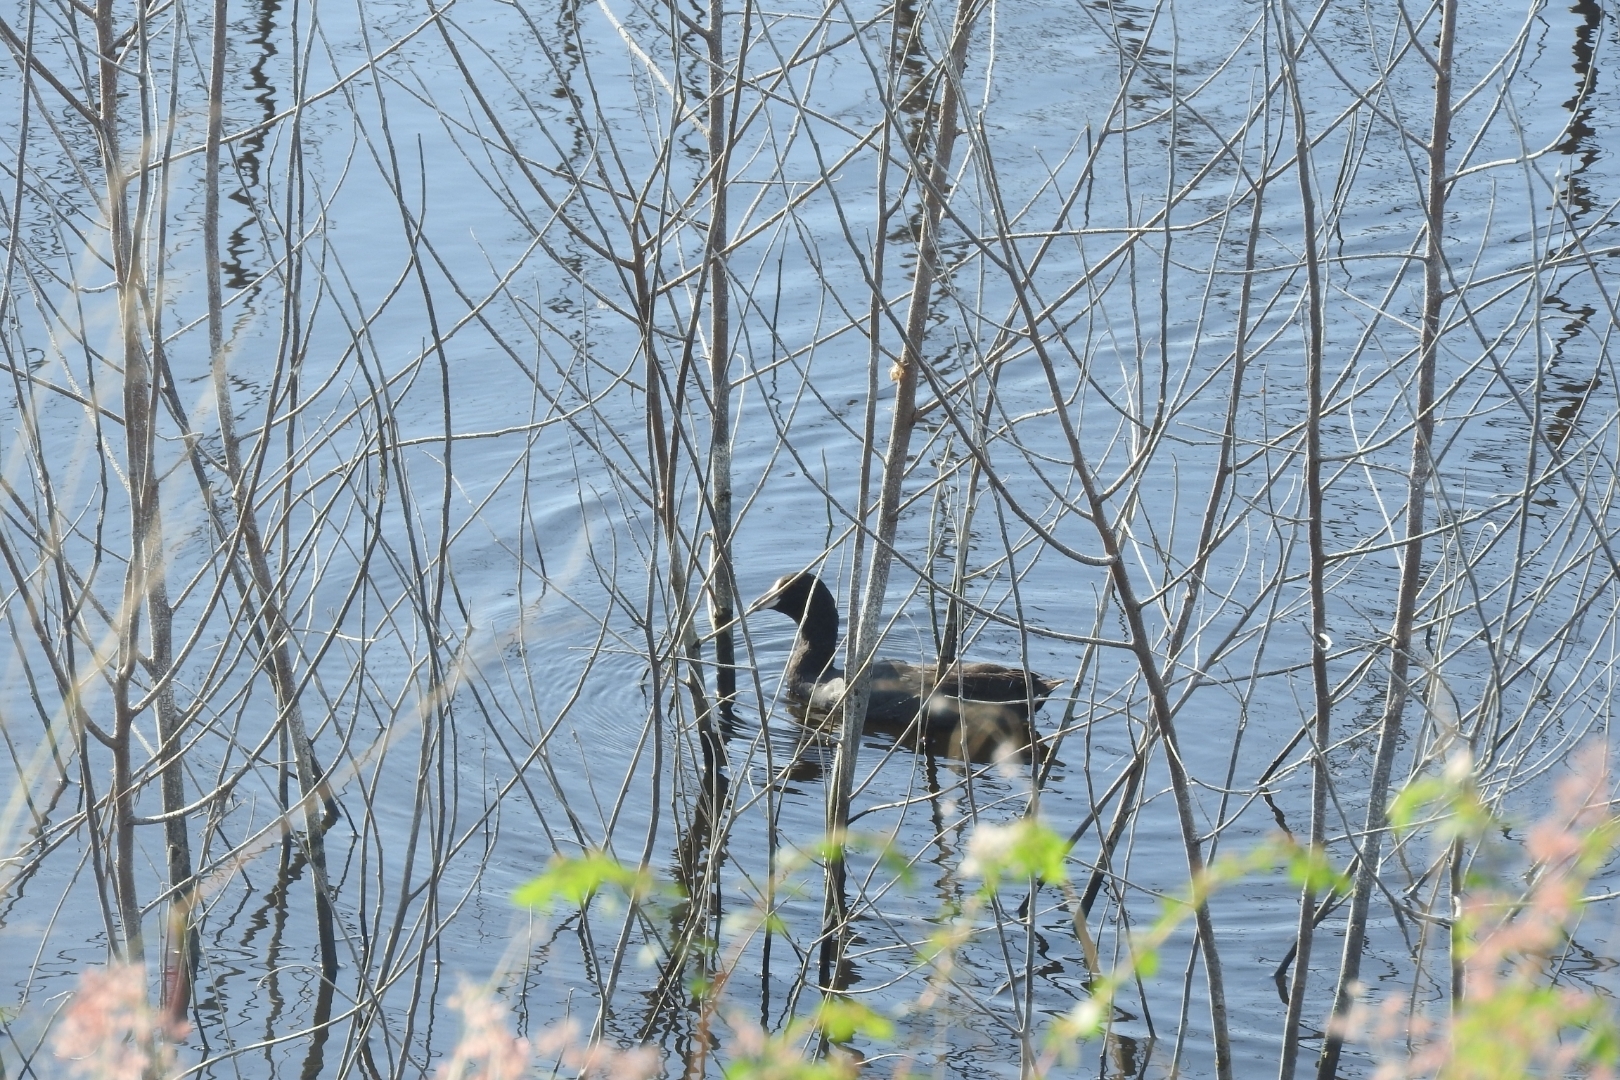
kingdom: Animalia
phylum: Chordata
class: Aves
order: Gruiformes
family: Rallidae
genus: Fulica
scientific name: Fulica americana
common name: American coot
